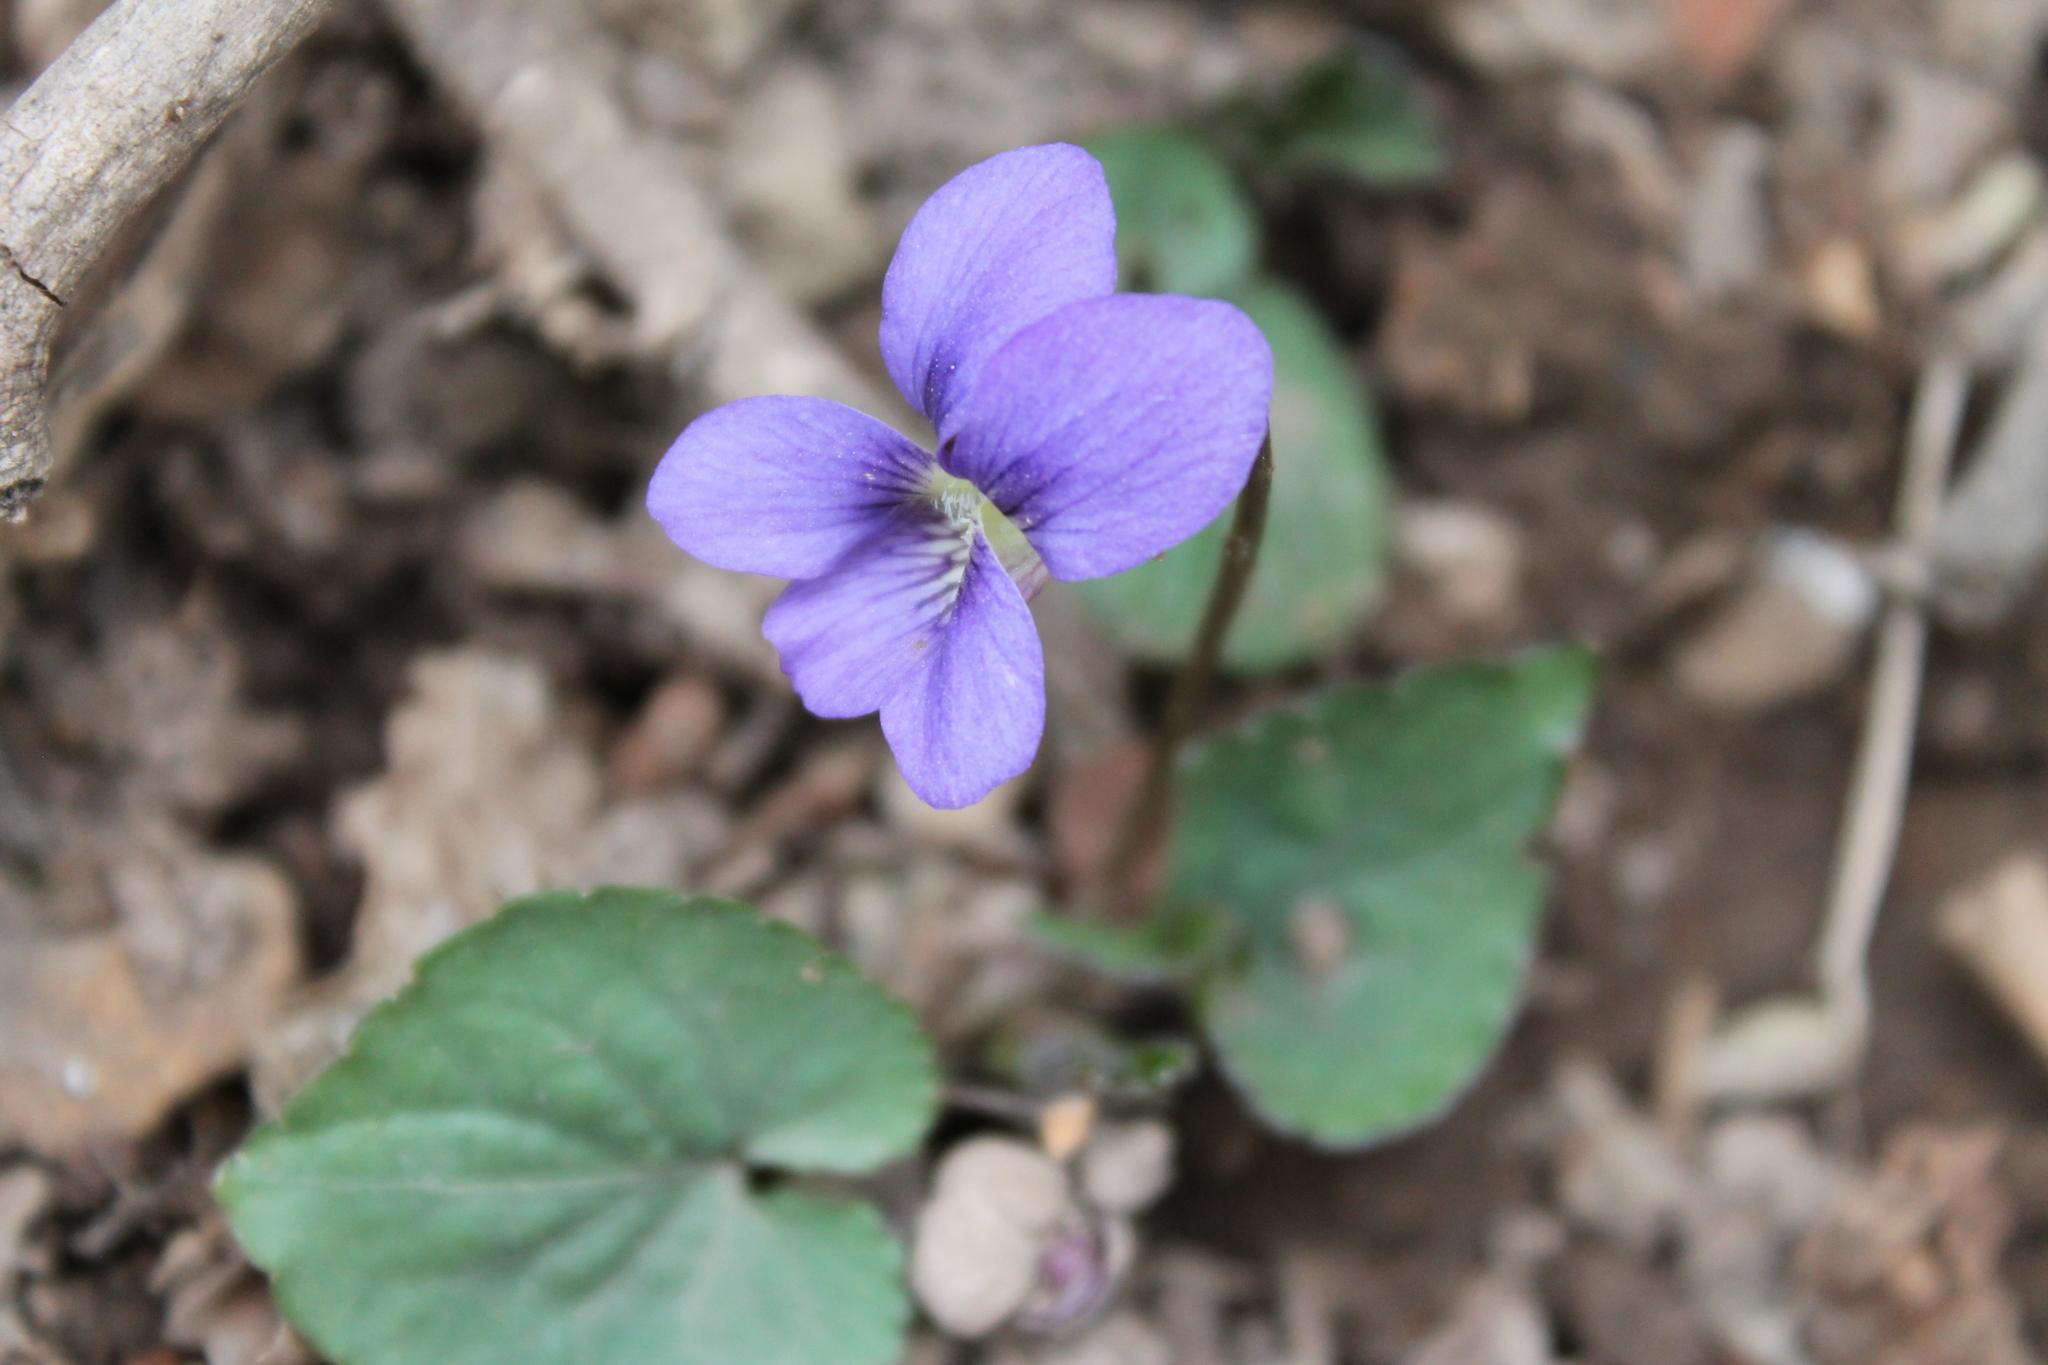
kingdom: Plantae
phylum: Tracheophyta
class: Magnoliopsida
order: Malpighiales
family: Violaceae
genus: Viola
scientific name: Viola sororia
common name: Dooryard violet
